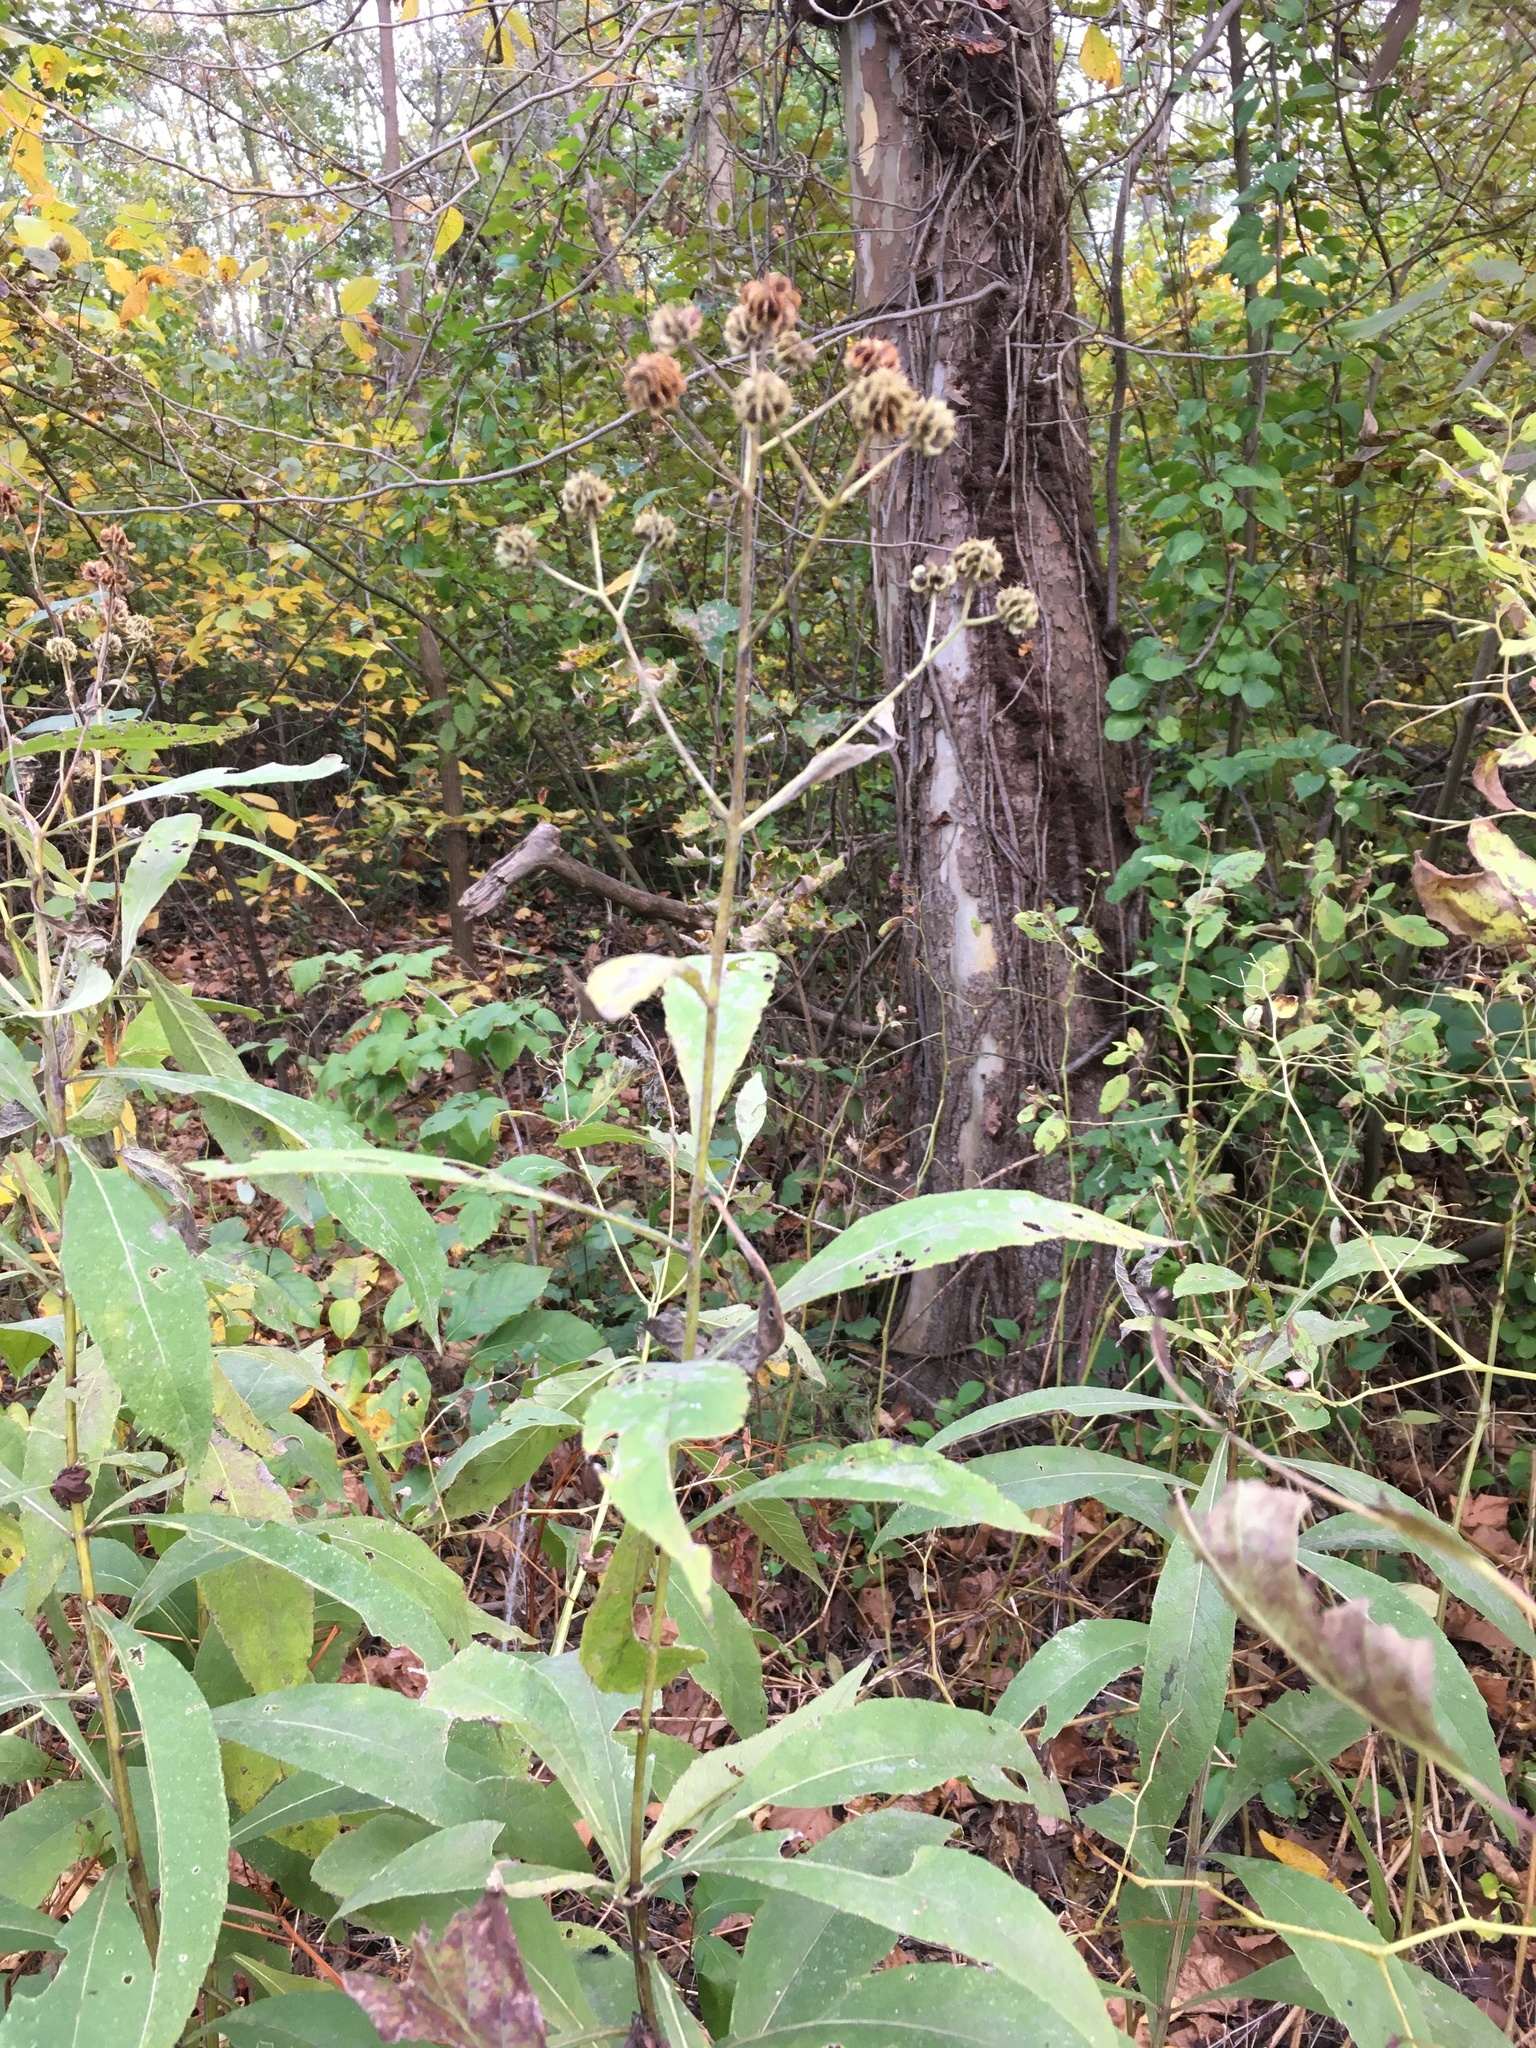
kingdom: Plantae
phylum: Tracheophyta
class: Magnoliopsida
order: Asterales
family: Asteraceae
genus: Verbesina
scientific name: Verbesina alternifolia
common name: Wingstem
